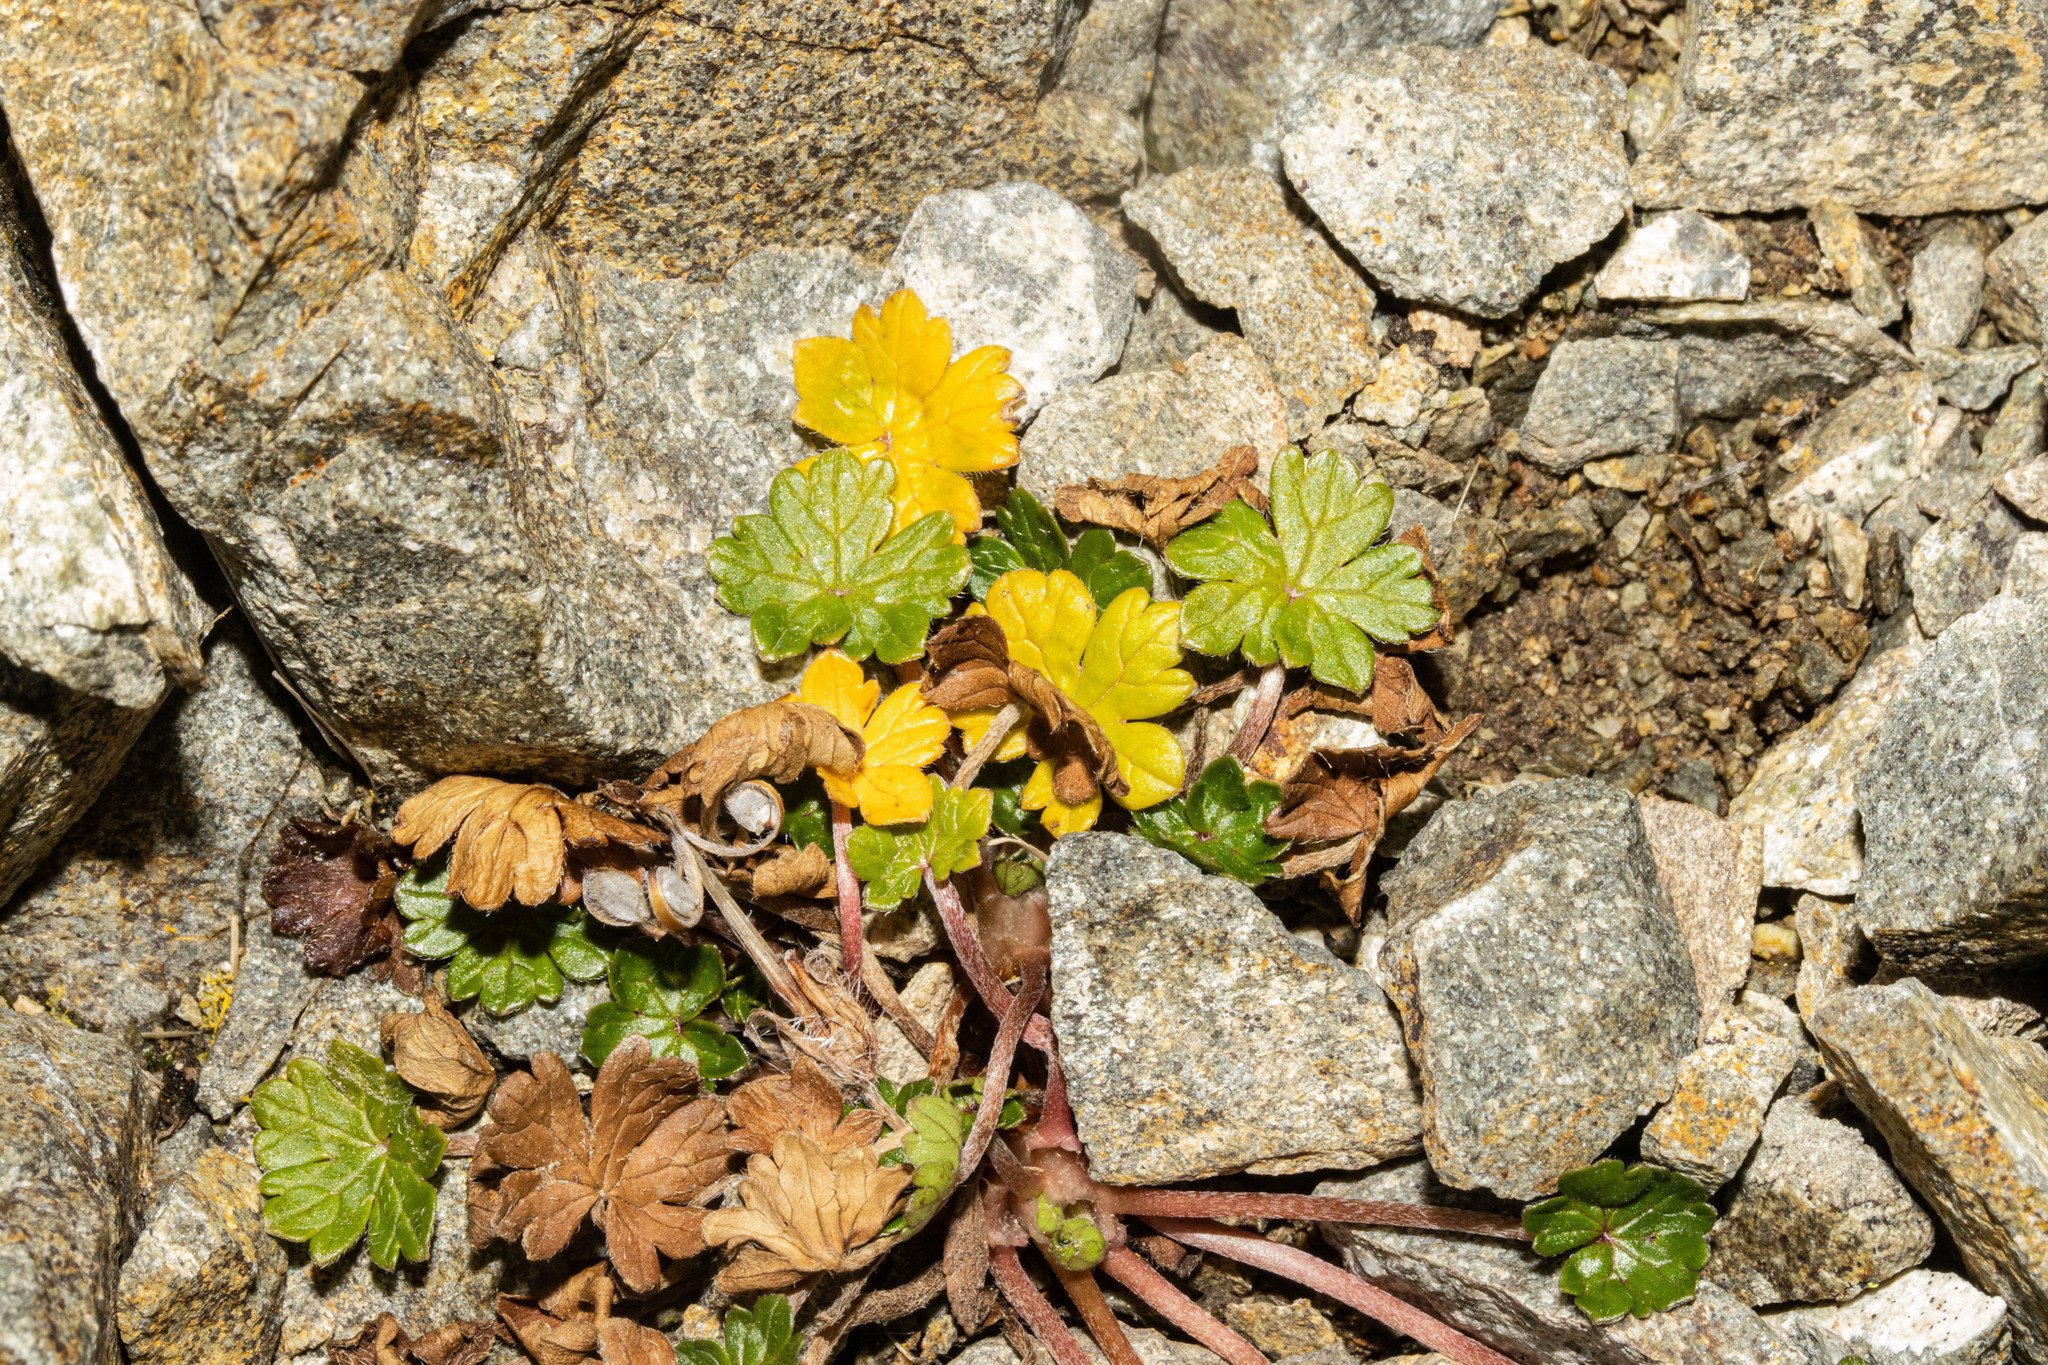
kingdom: Plantae
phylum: Tracheophyta
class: Magnoliopsida
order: Geraniales
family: Geraniaceae
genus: Geranium
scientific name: Geranium brevicaule
